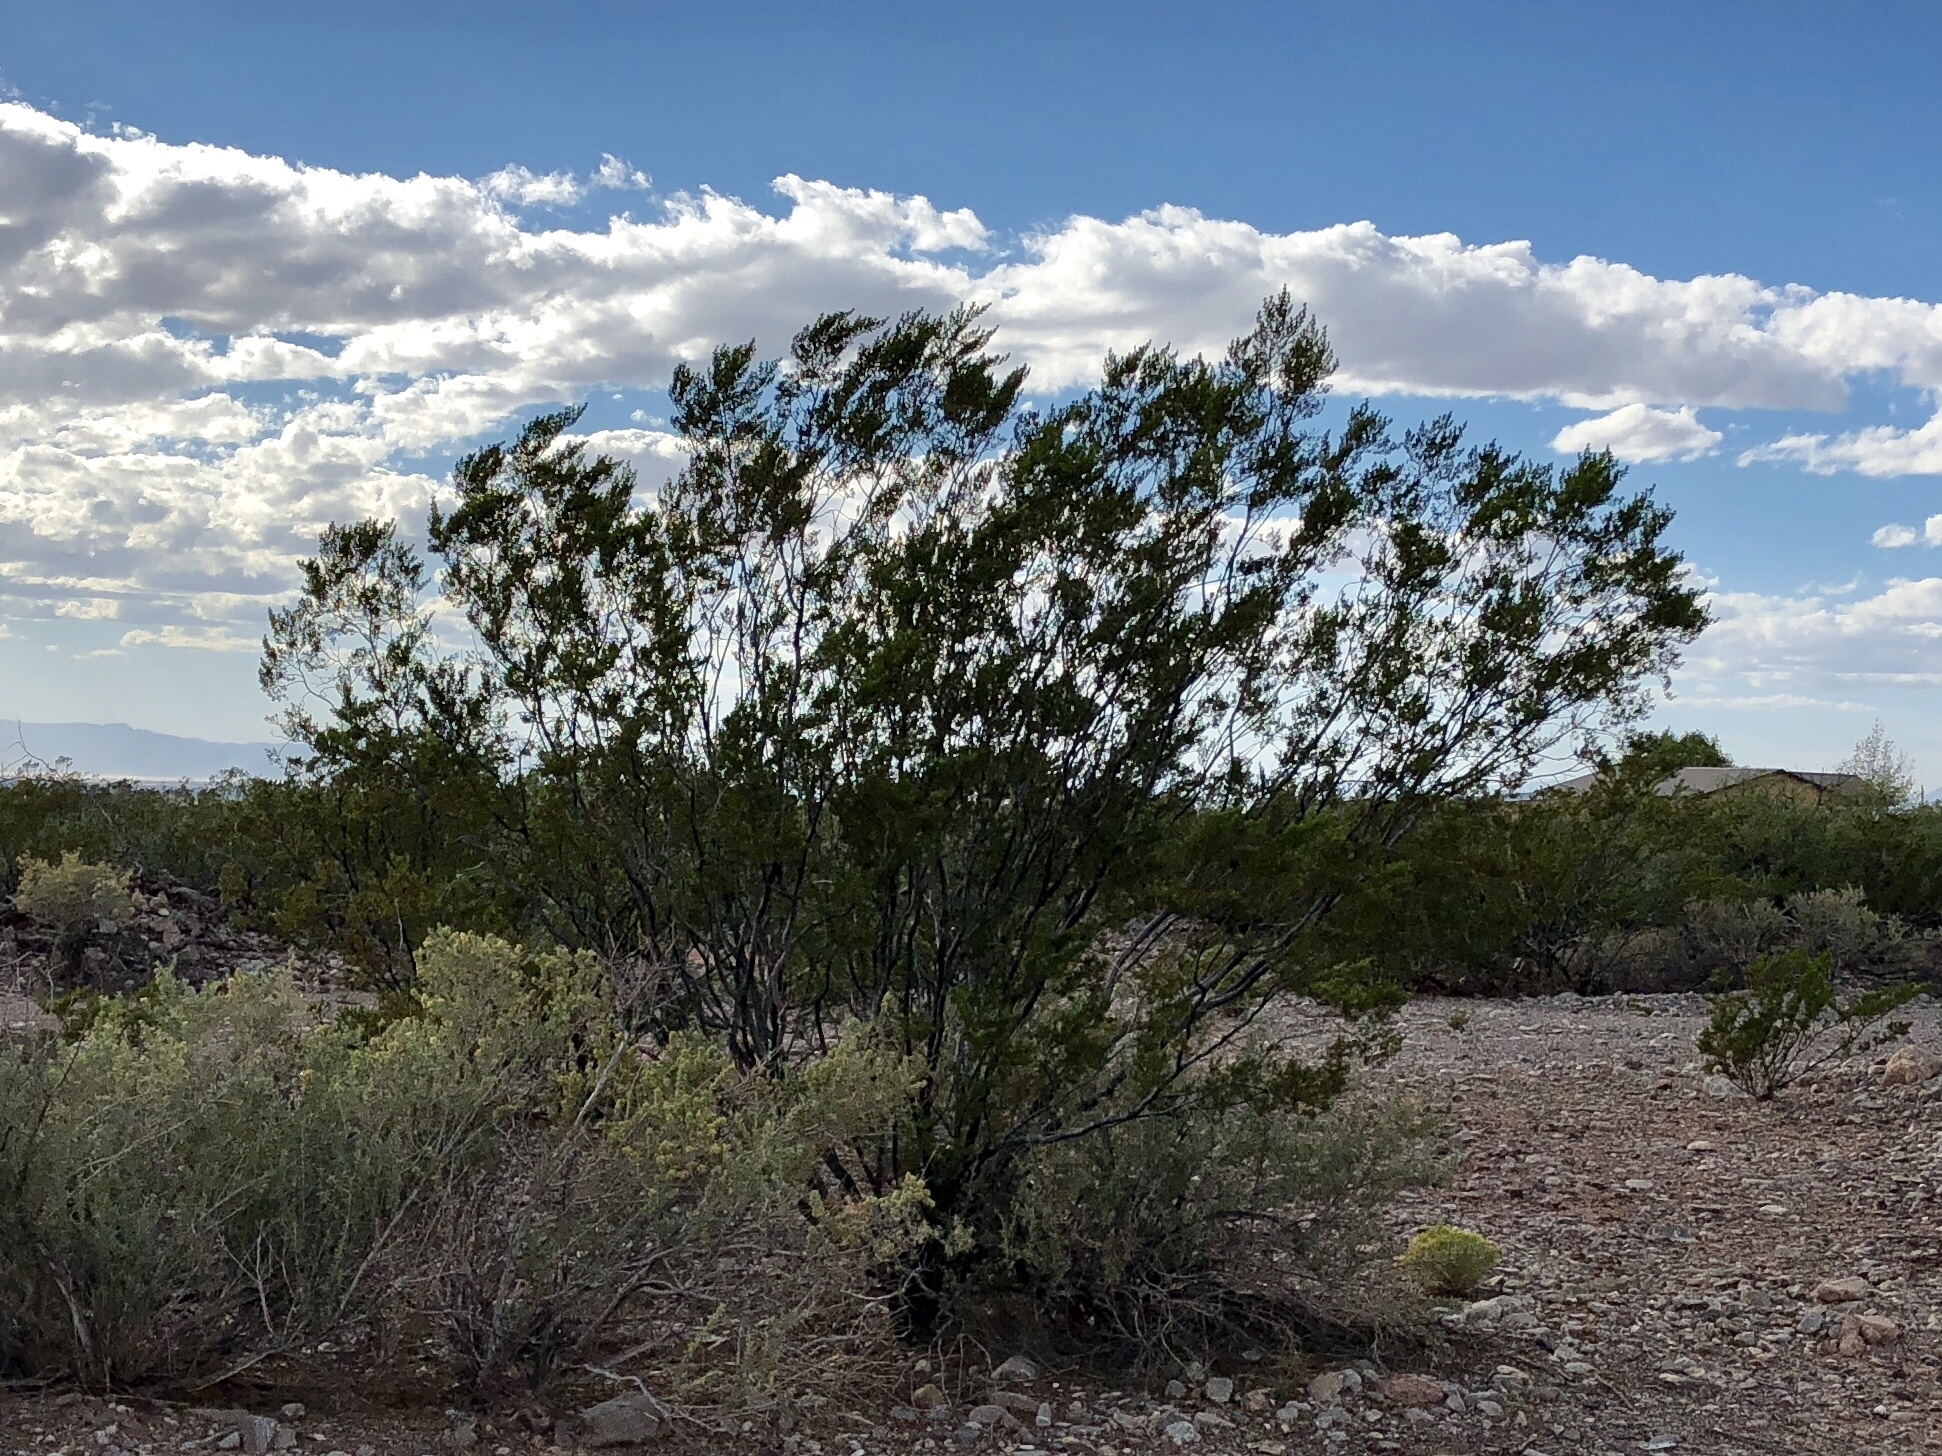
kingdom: Plantae
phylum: Tracheophyta
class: Magnoliopsida
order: Zygophyllales
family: Zygophyllaceae
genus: Larrea
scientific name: Larrea tridentata
